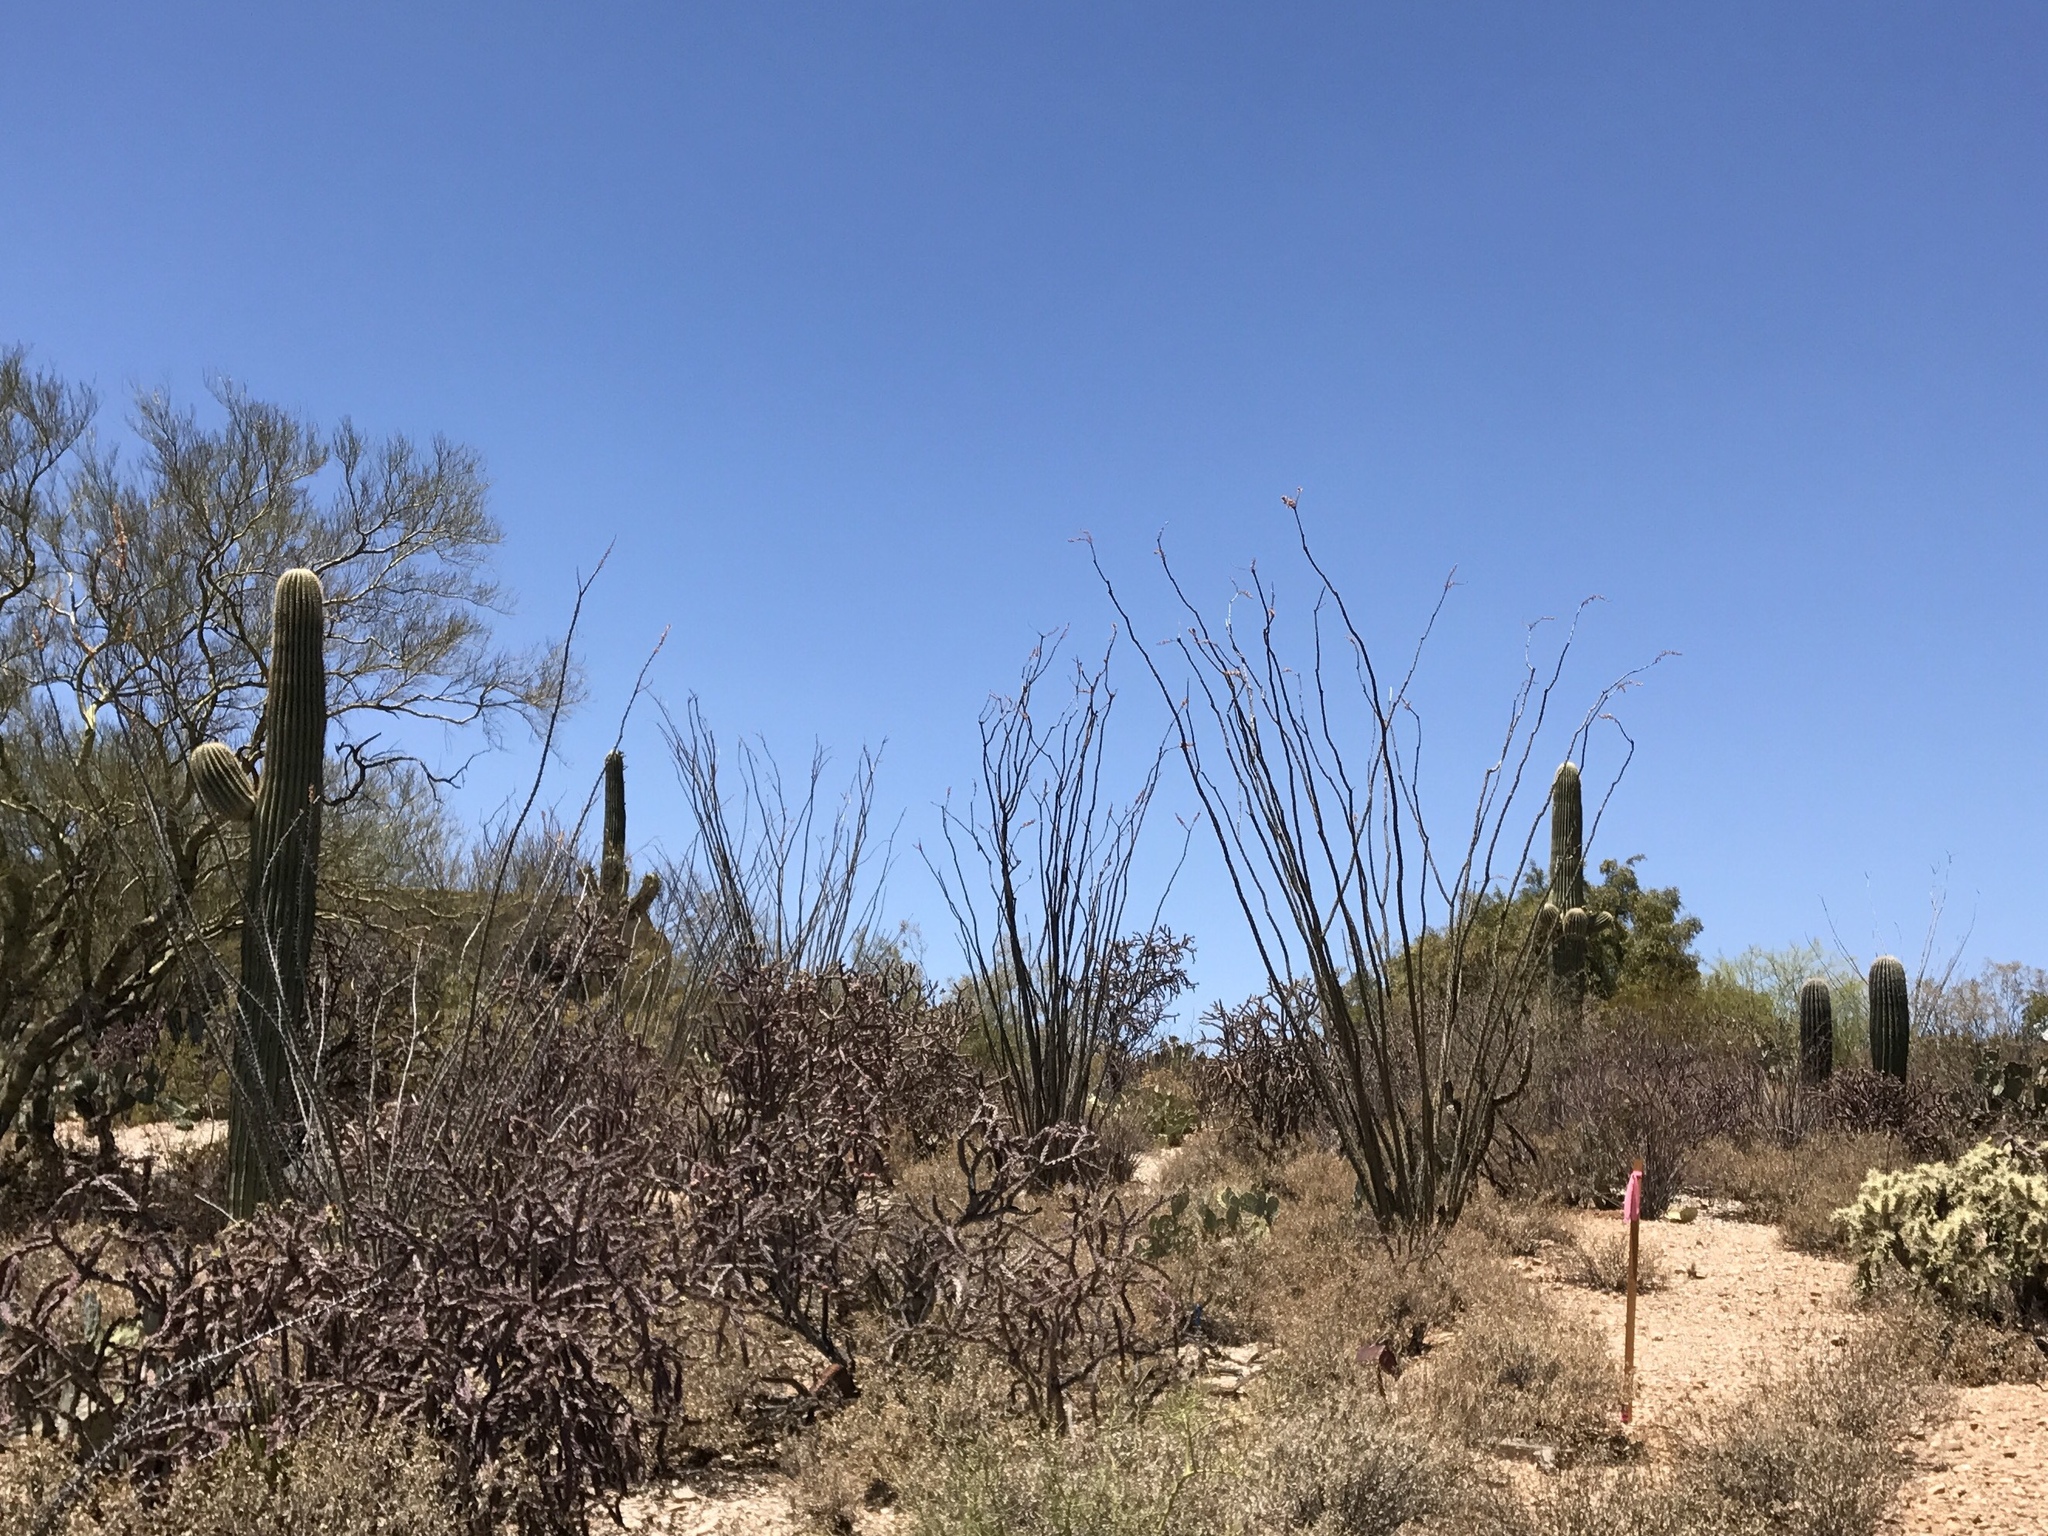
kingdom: Plantae
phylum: Tracheophyta
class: Magnoliopsida
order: Ericales
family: Fouquieriaceae
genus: Fouquieria
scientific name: Fouquieria splendens
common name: Vine-cactus
